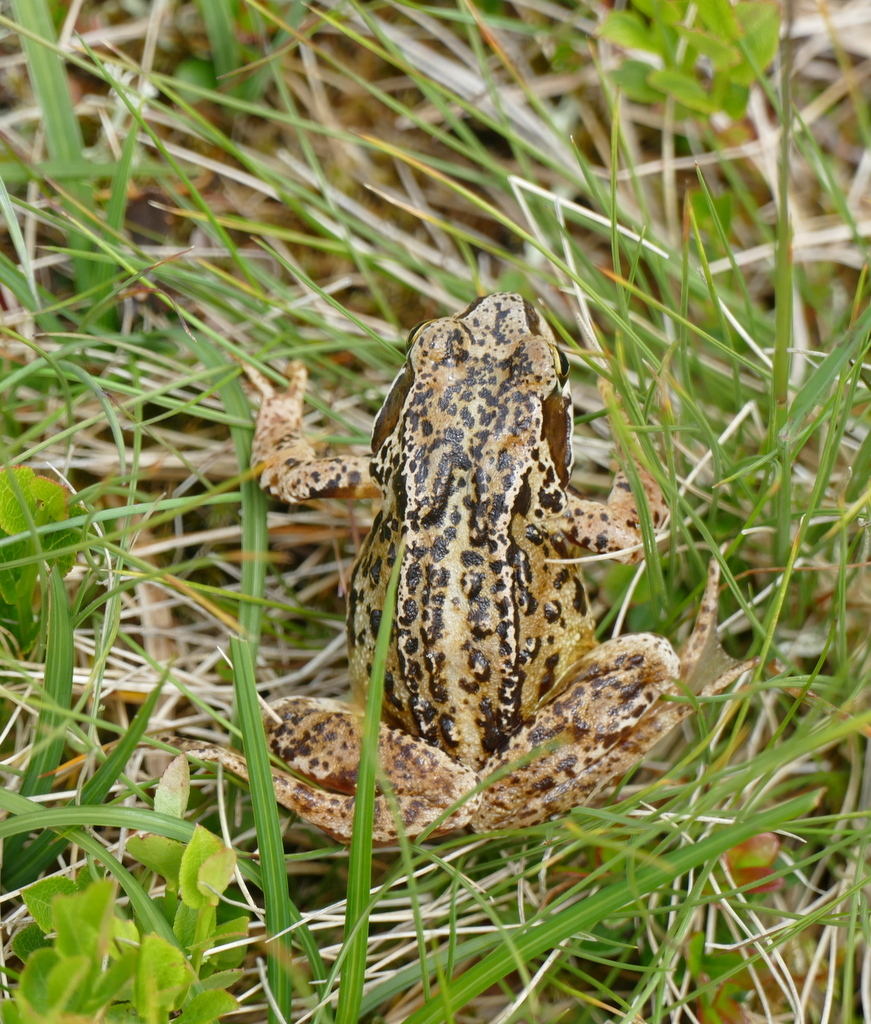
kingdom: Animalia
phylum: Chordata
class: Amphibia
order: Anura
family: Ranidae
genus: Rana
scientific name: Rana temporaria
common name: Common frog
